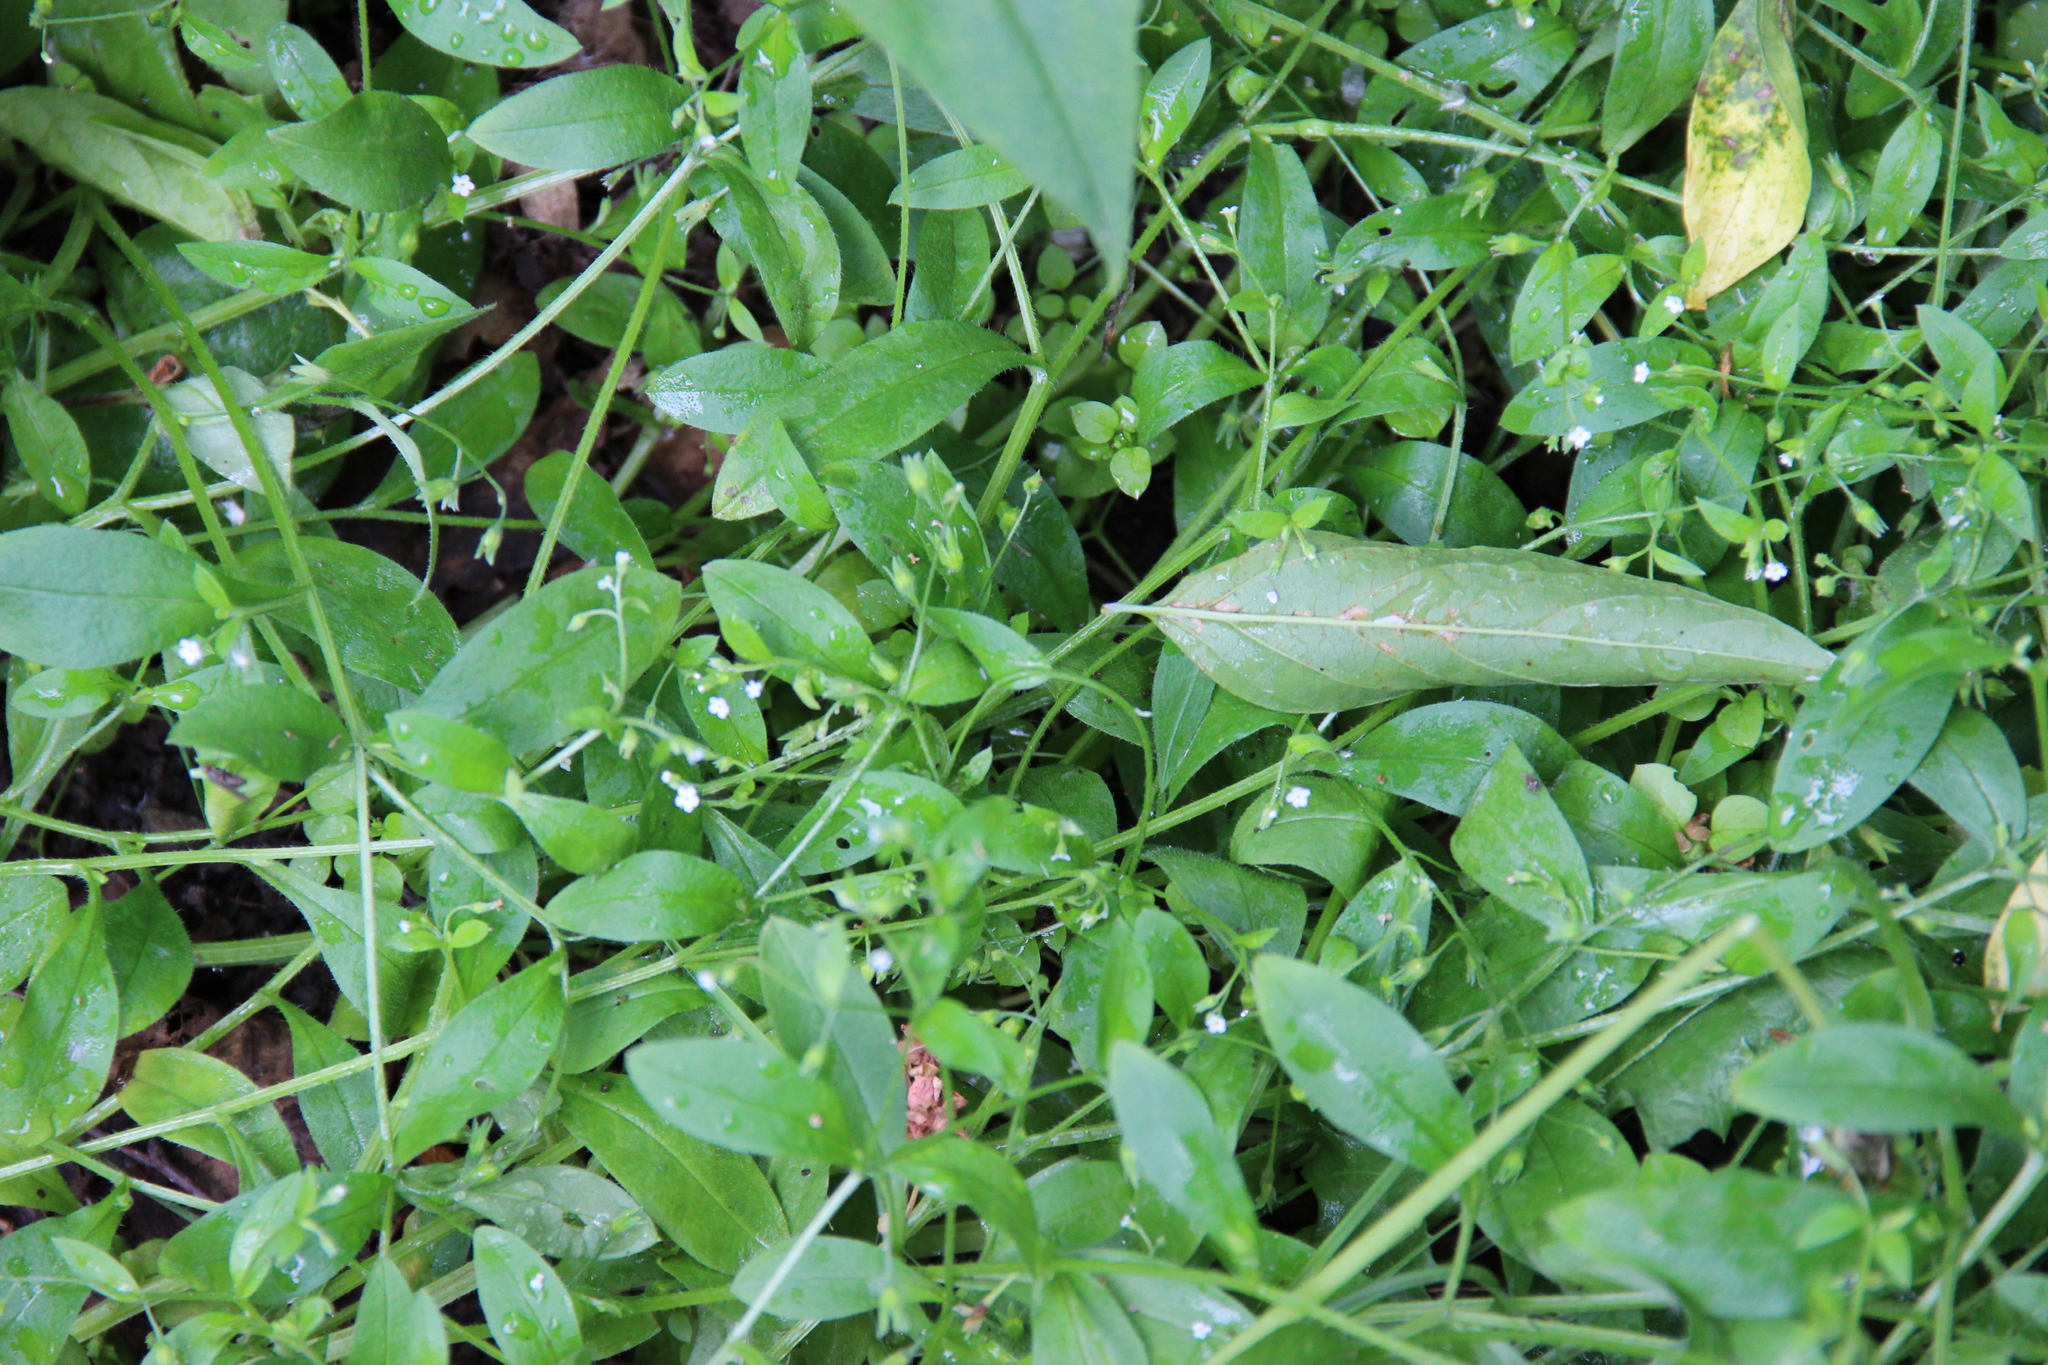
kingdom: Plantae
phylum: Tracheophyta
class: Magnoliopsida
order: Boraginales
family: Boraginaceae
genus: Myosotis
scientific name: Myosotis sparsiflora
